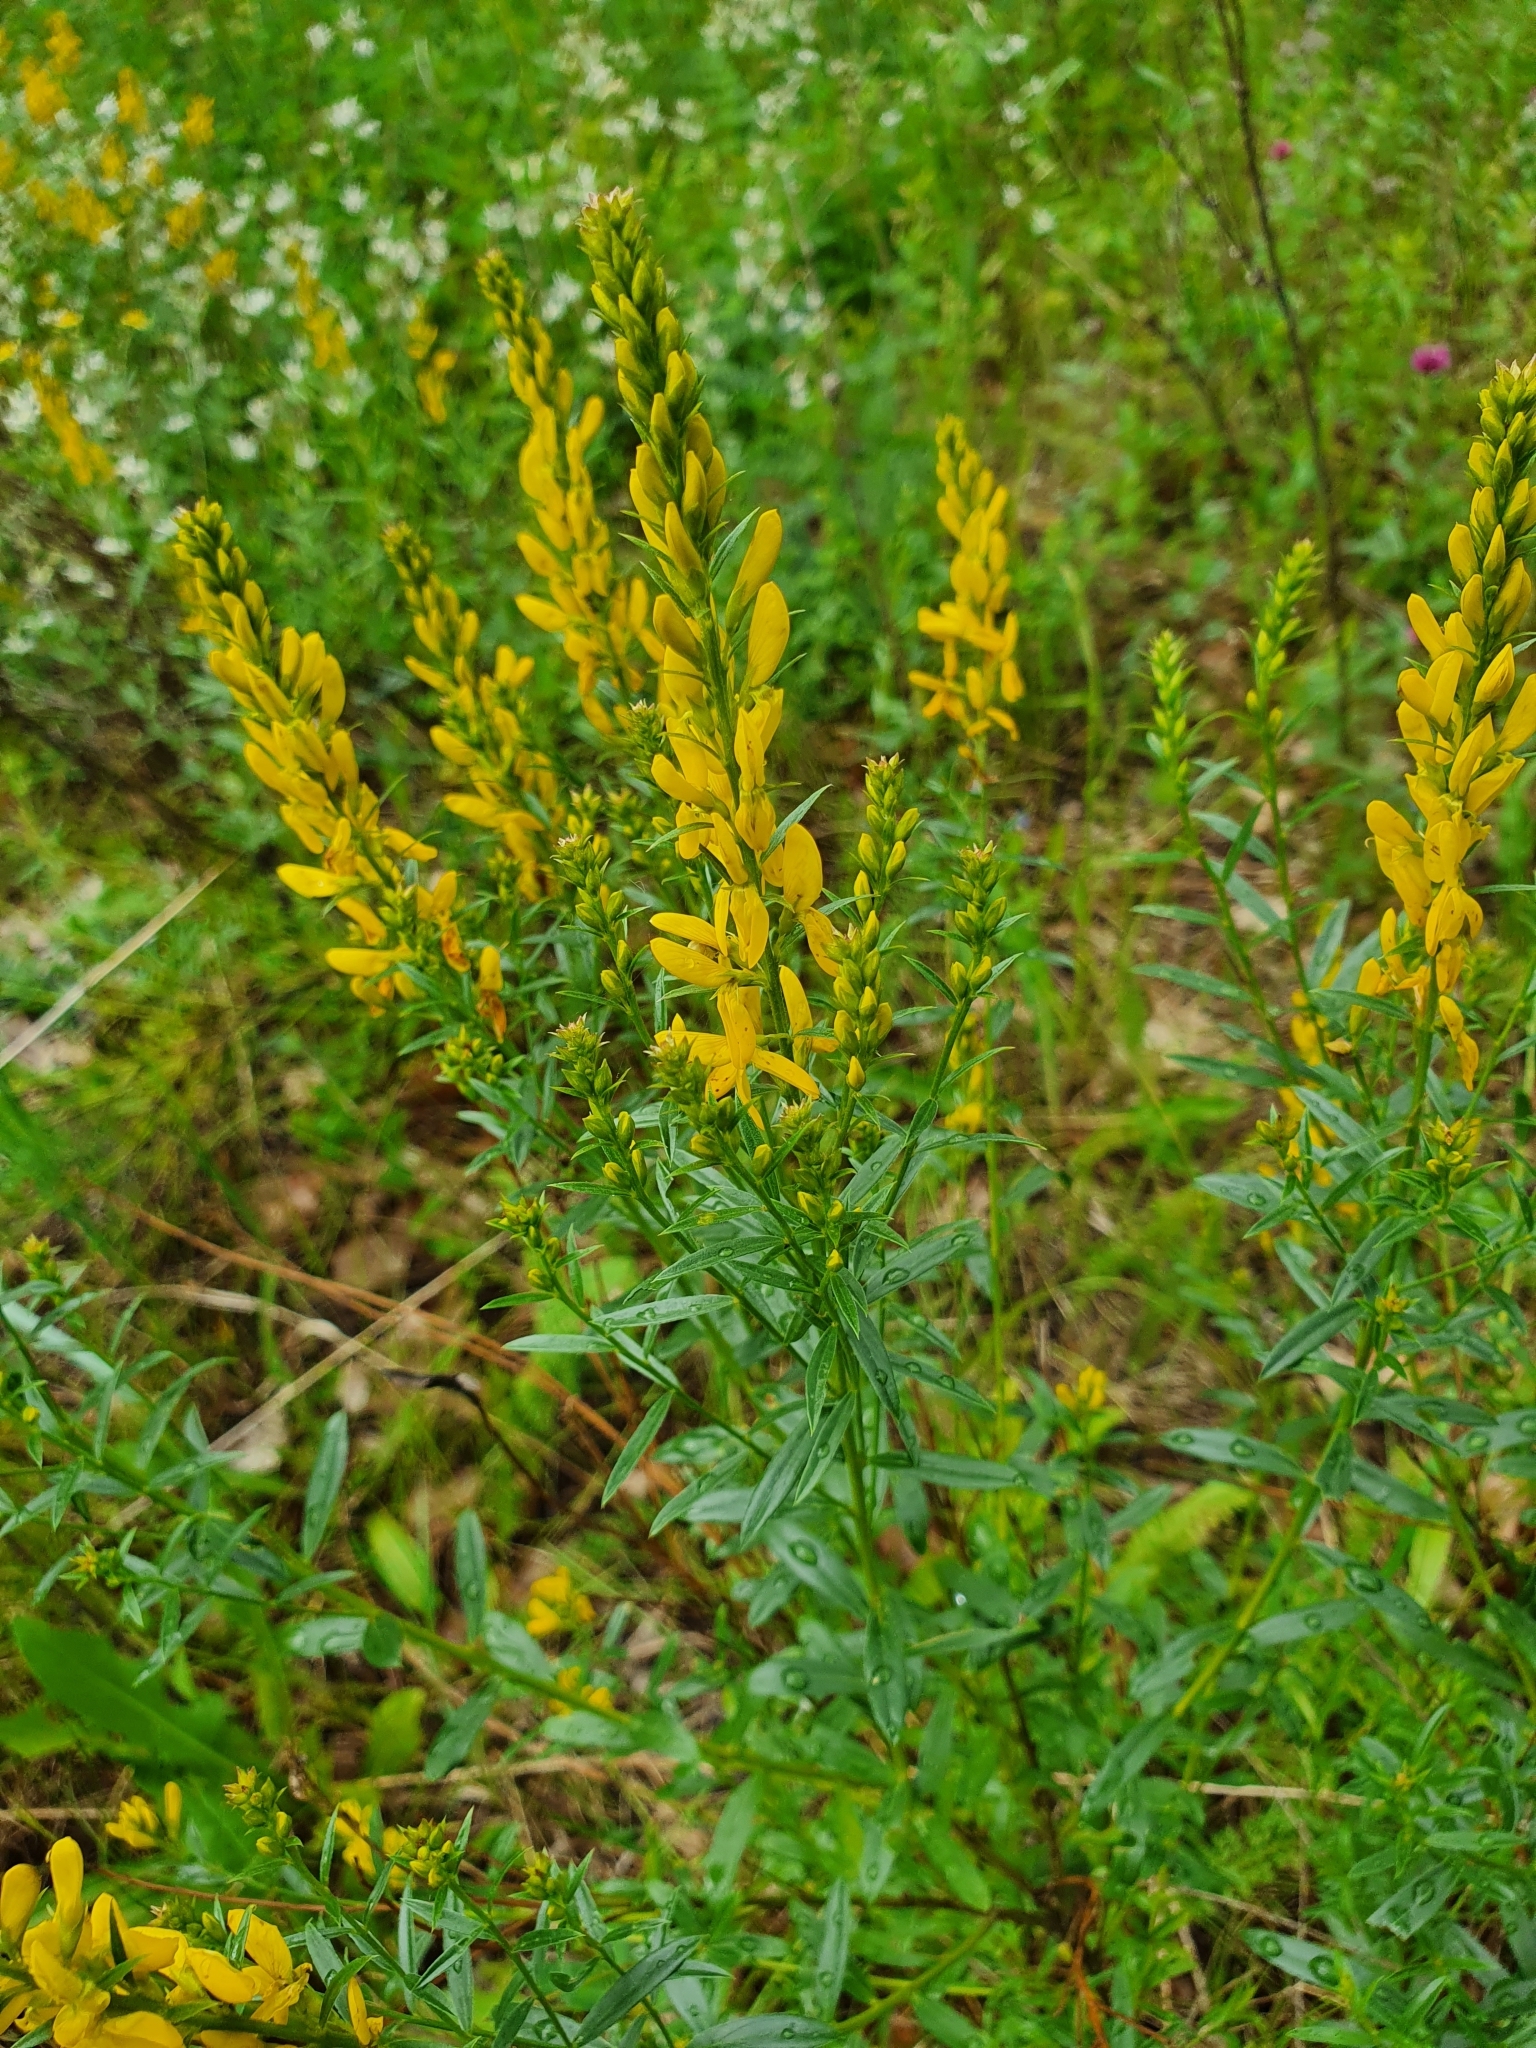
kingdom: Plantae
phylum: Tracheophyta
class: Magnoliopsida
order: Fabales
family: Fabaceae
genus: Genista
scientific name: Genista tinctoria
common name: Dyer's greenweed
